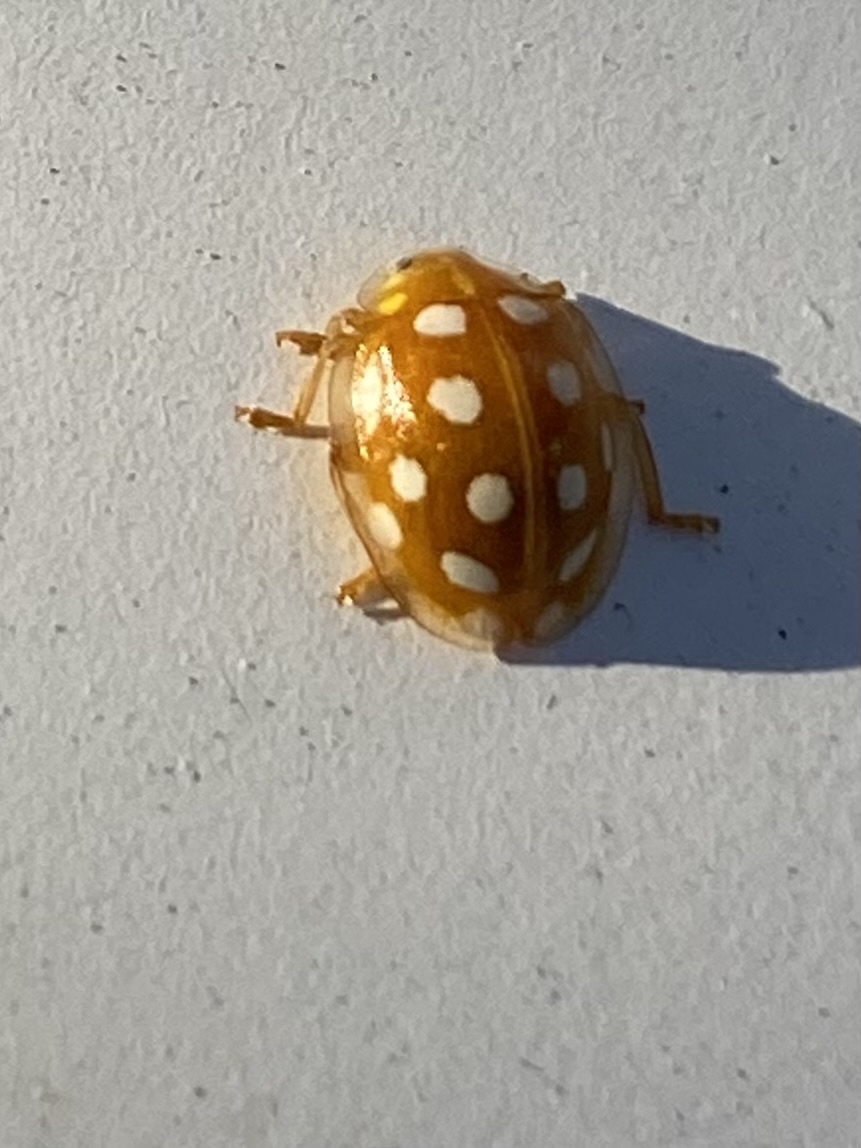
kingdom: Animalia
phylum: Arthropoda
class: Insecta
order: Coleoptera
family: Coccinellidae
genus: Halyzia
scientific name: Halyzia sedecimguttata
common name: Orange ladybird
